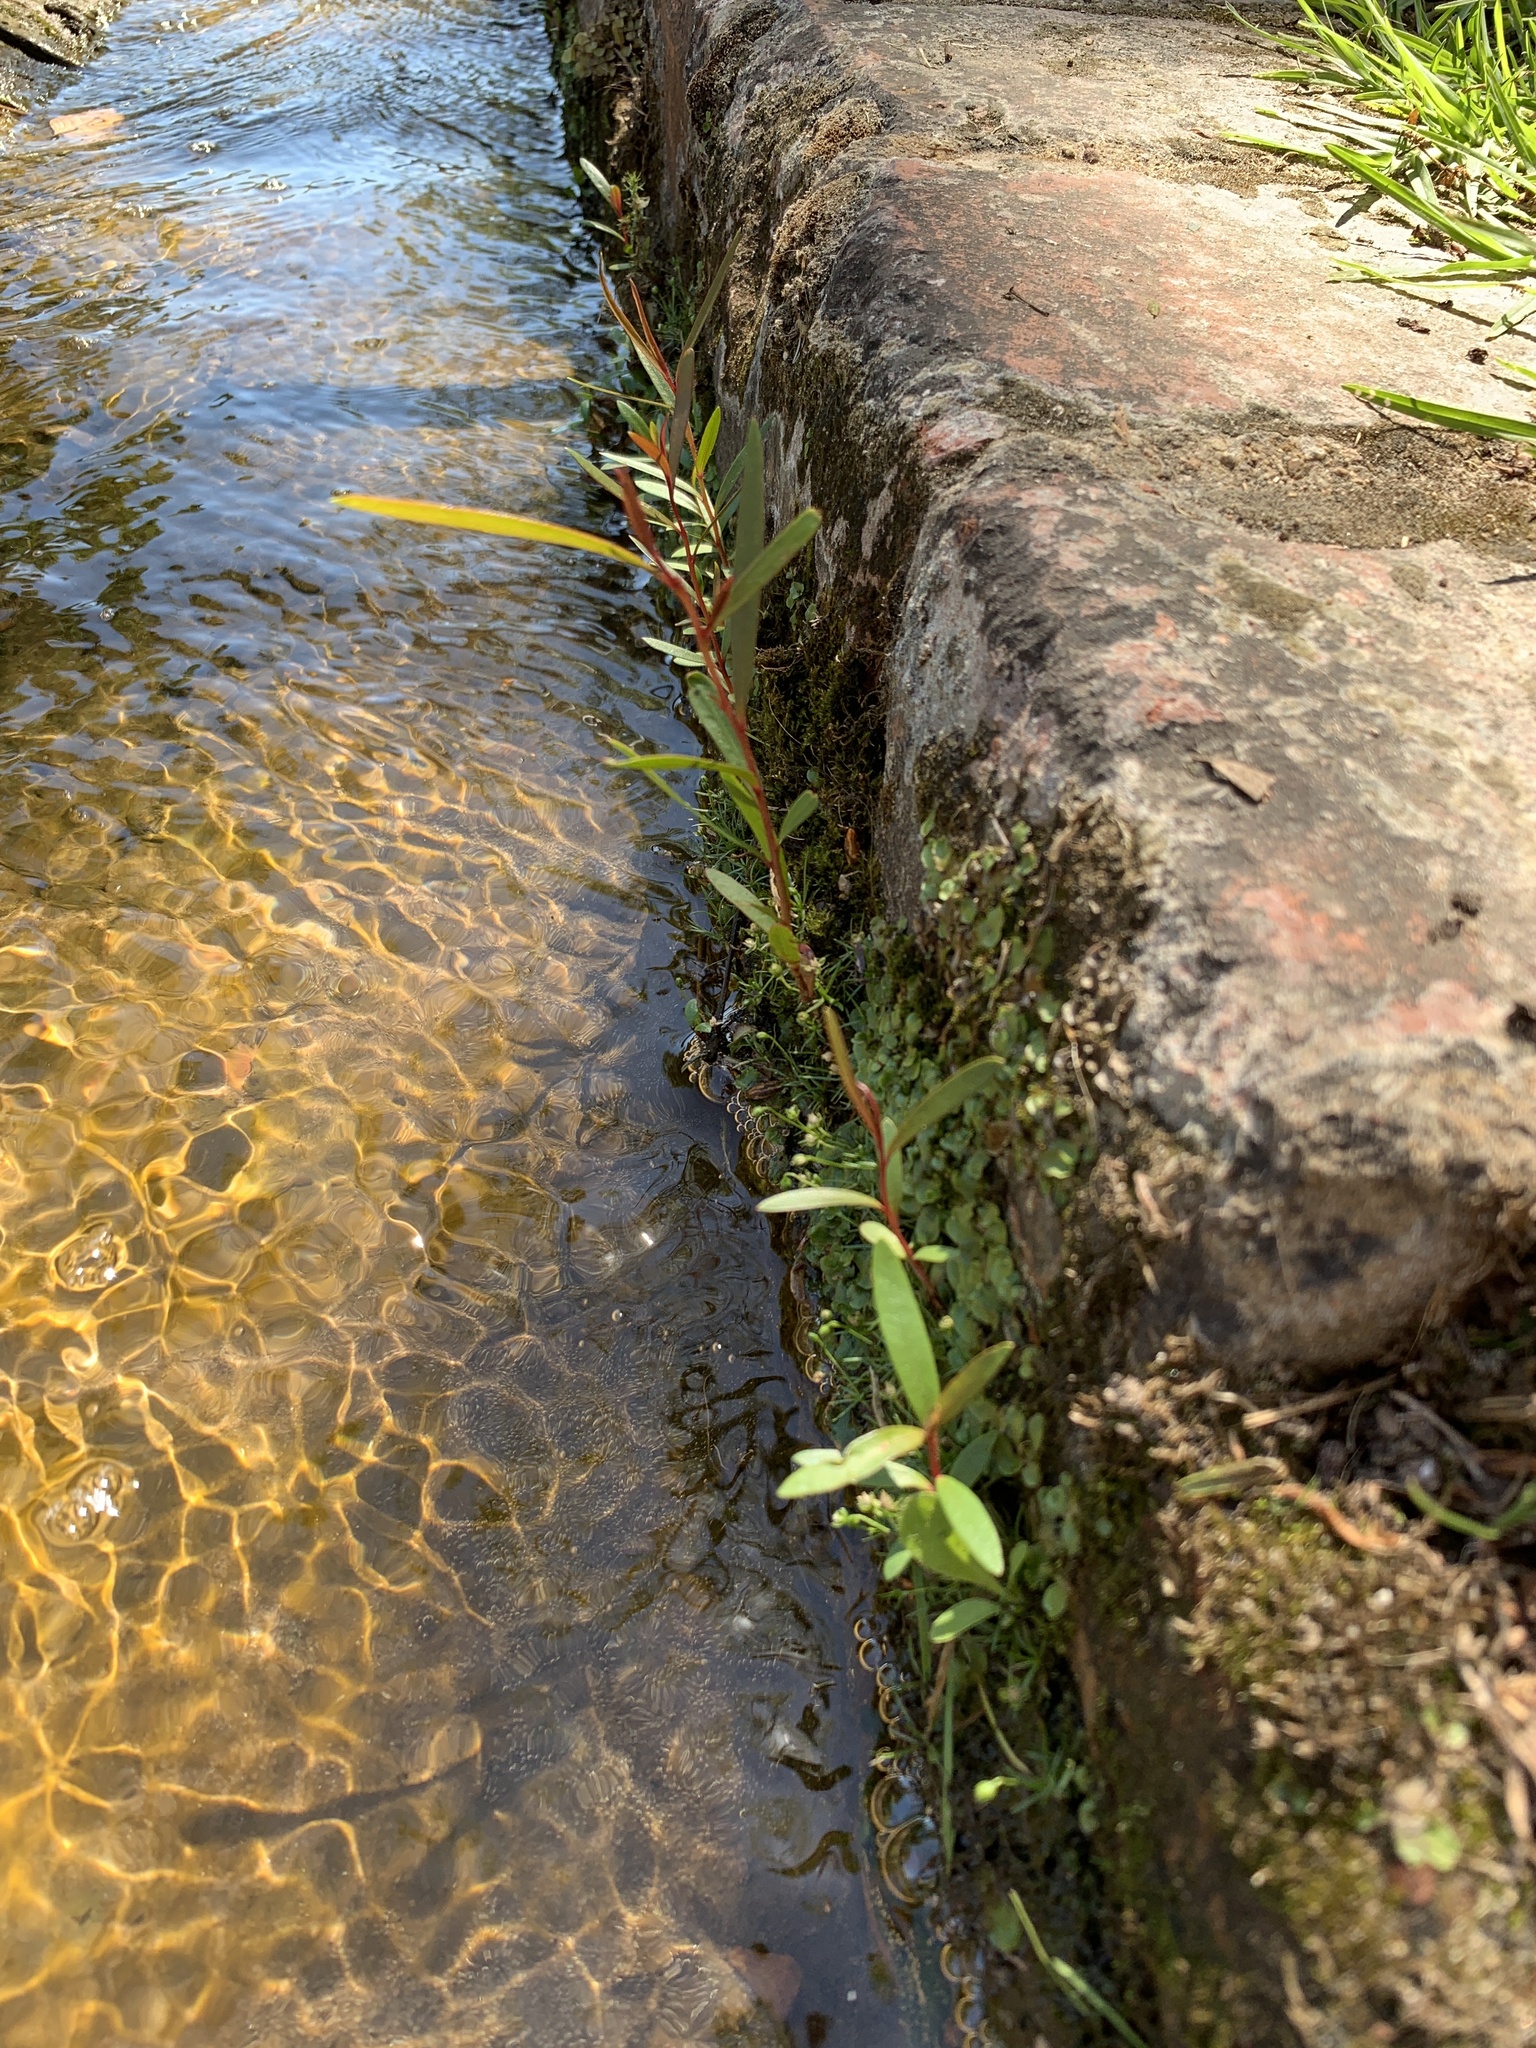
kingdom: Plantae
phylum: Tracheophyta
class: Magnoliopsida
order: Myrtales
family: Myrtaceae
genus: Callistemon
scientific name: Callistemon viminalis
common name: Drooping bottlebrush
